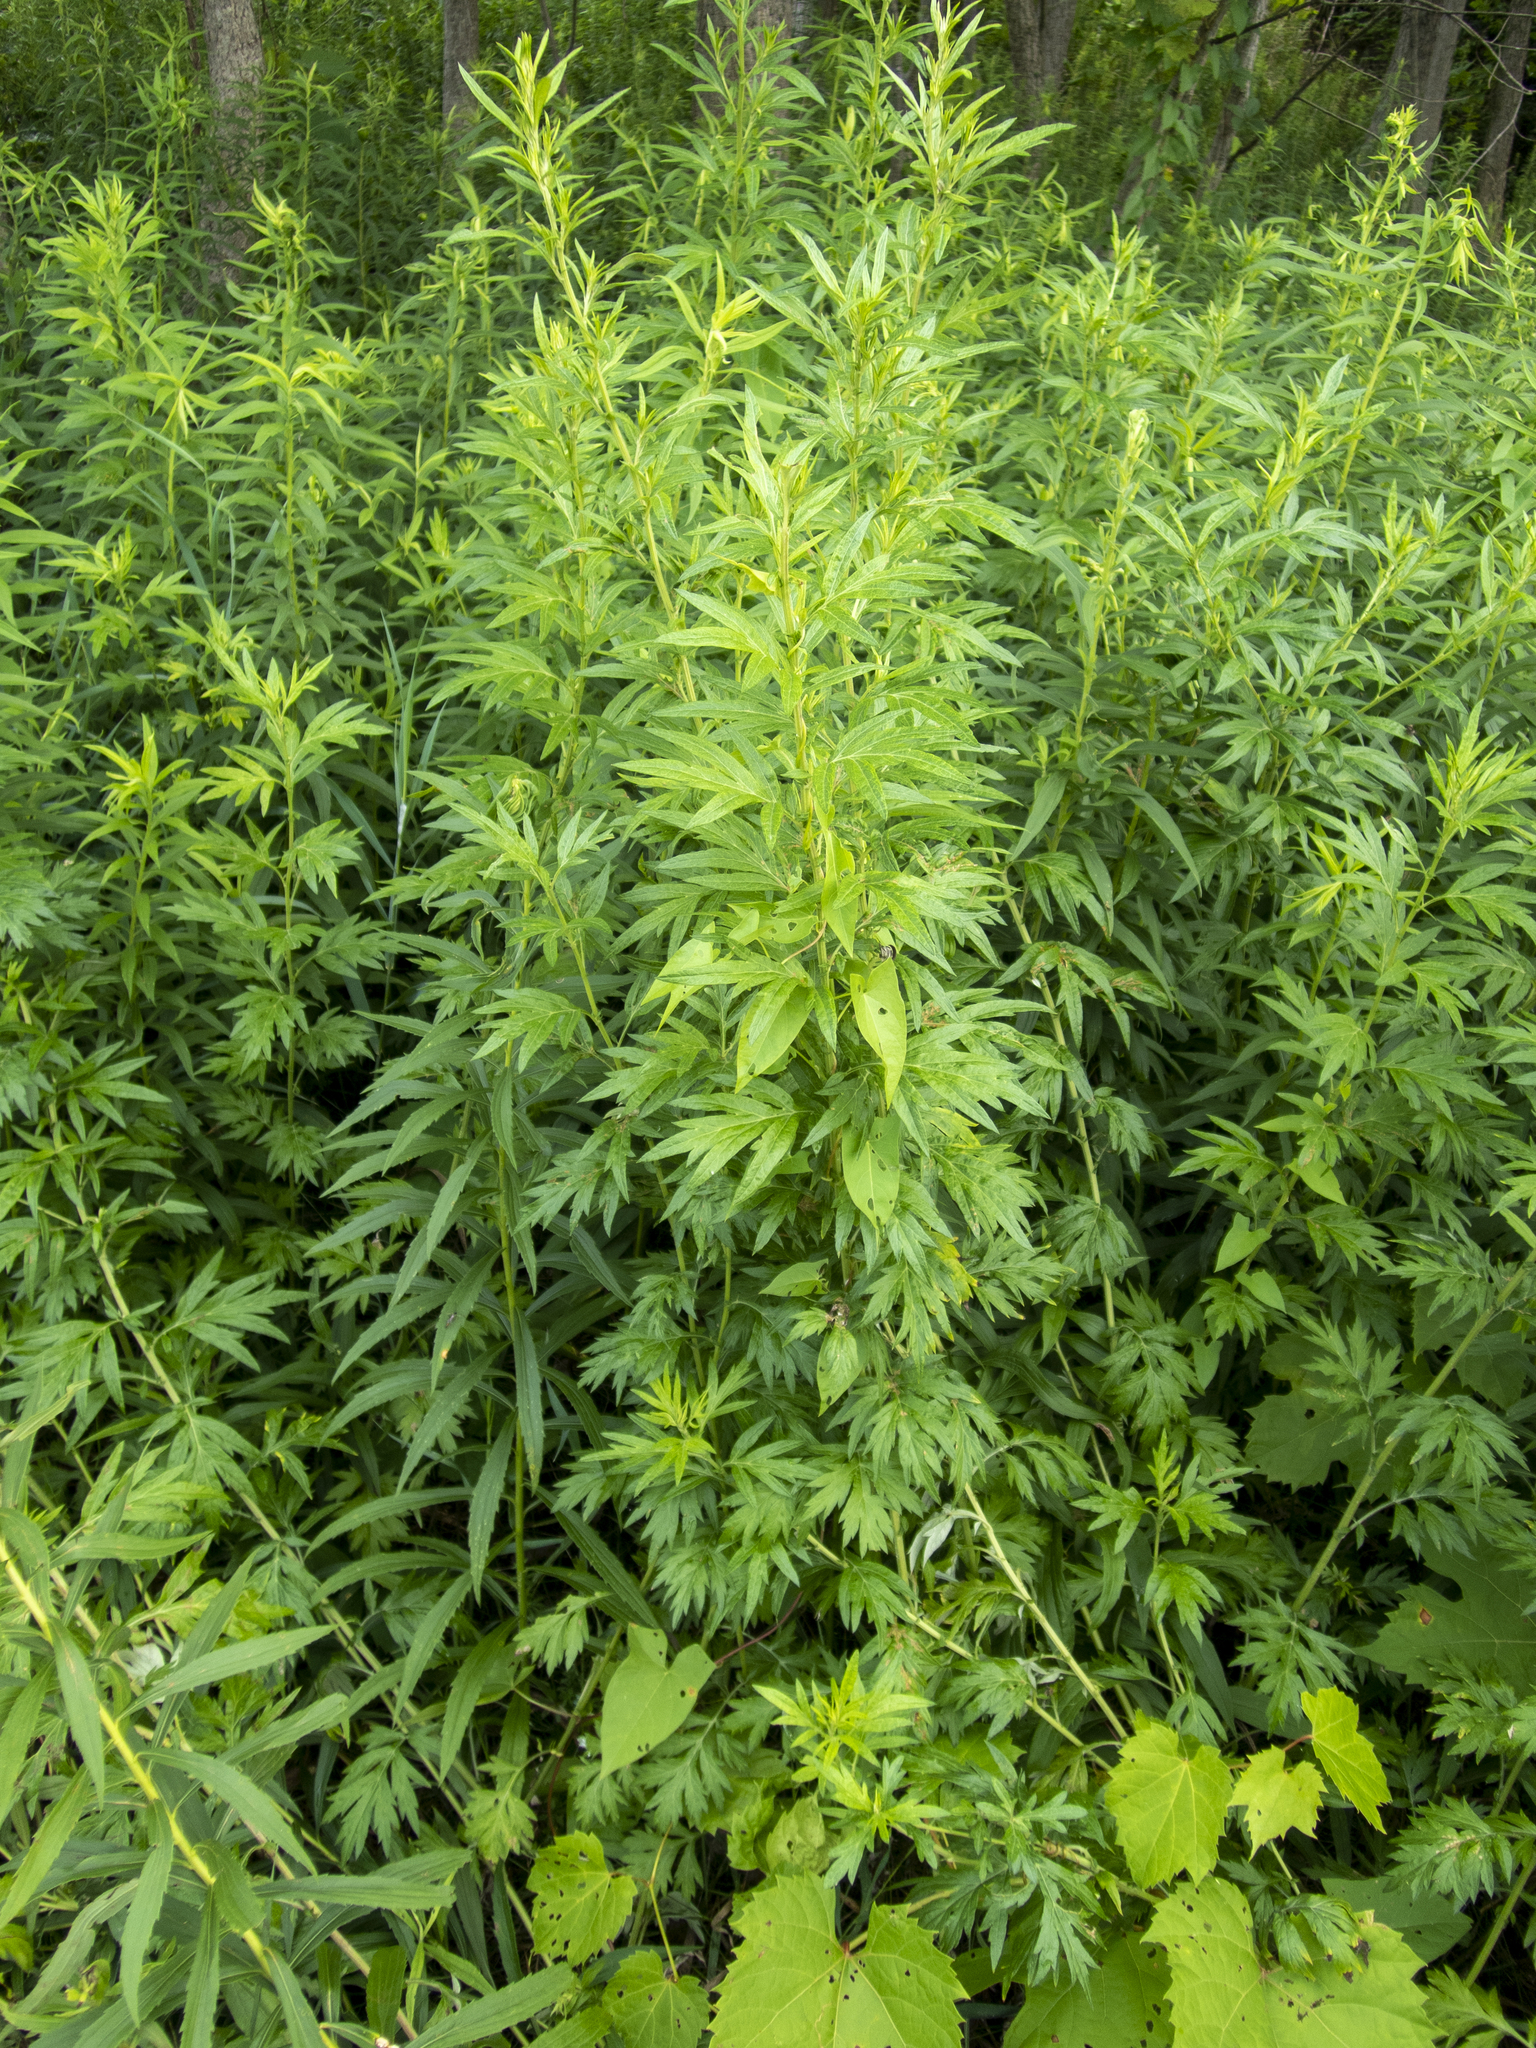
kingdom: Plantae
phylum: Tracheophyta
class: Magnoliopsida
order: Asterales
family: Asteraceae
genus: Artemisia
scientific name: Artemisia vulgaris
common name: Mugwort
